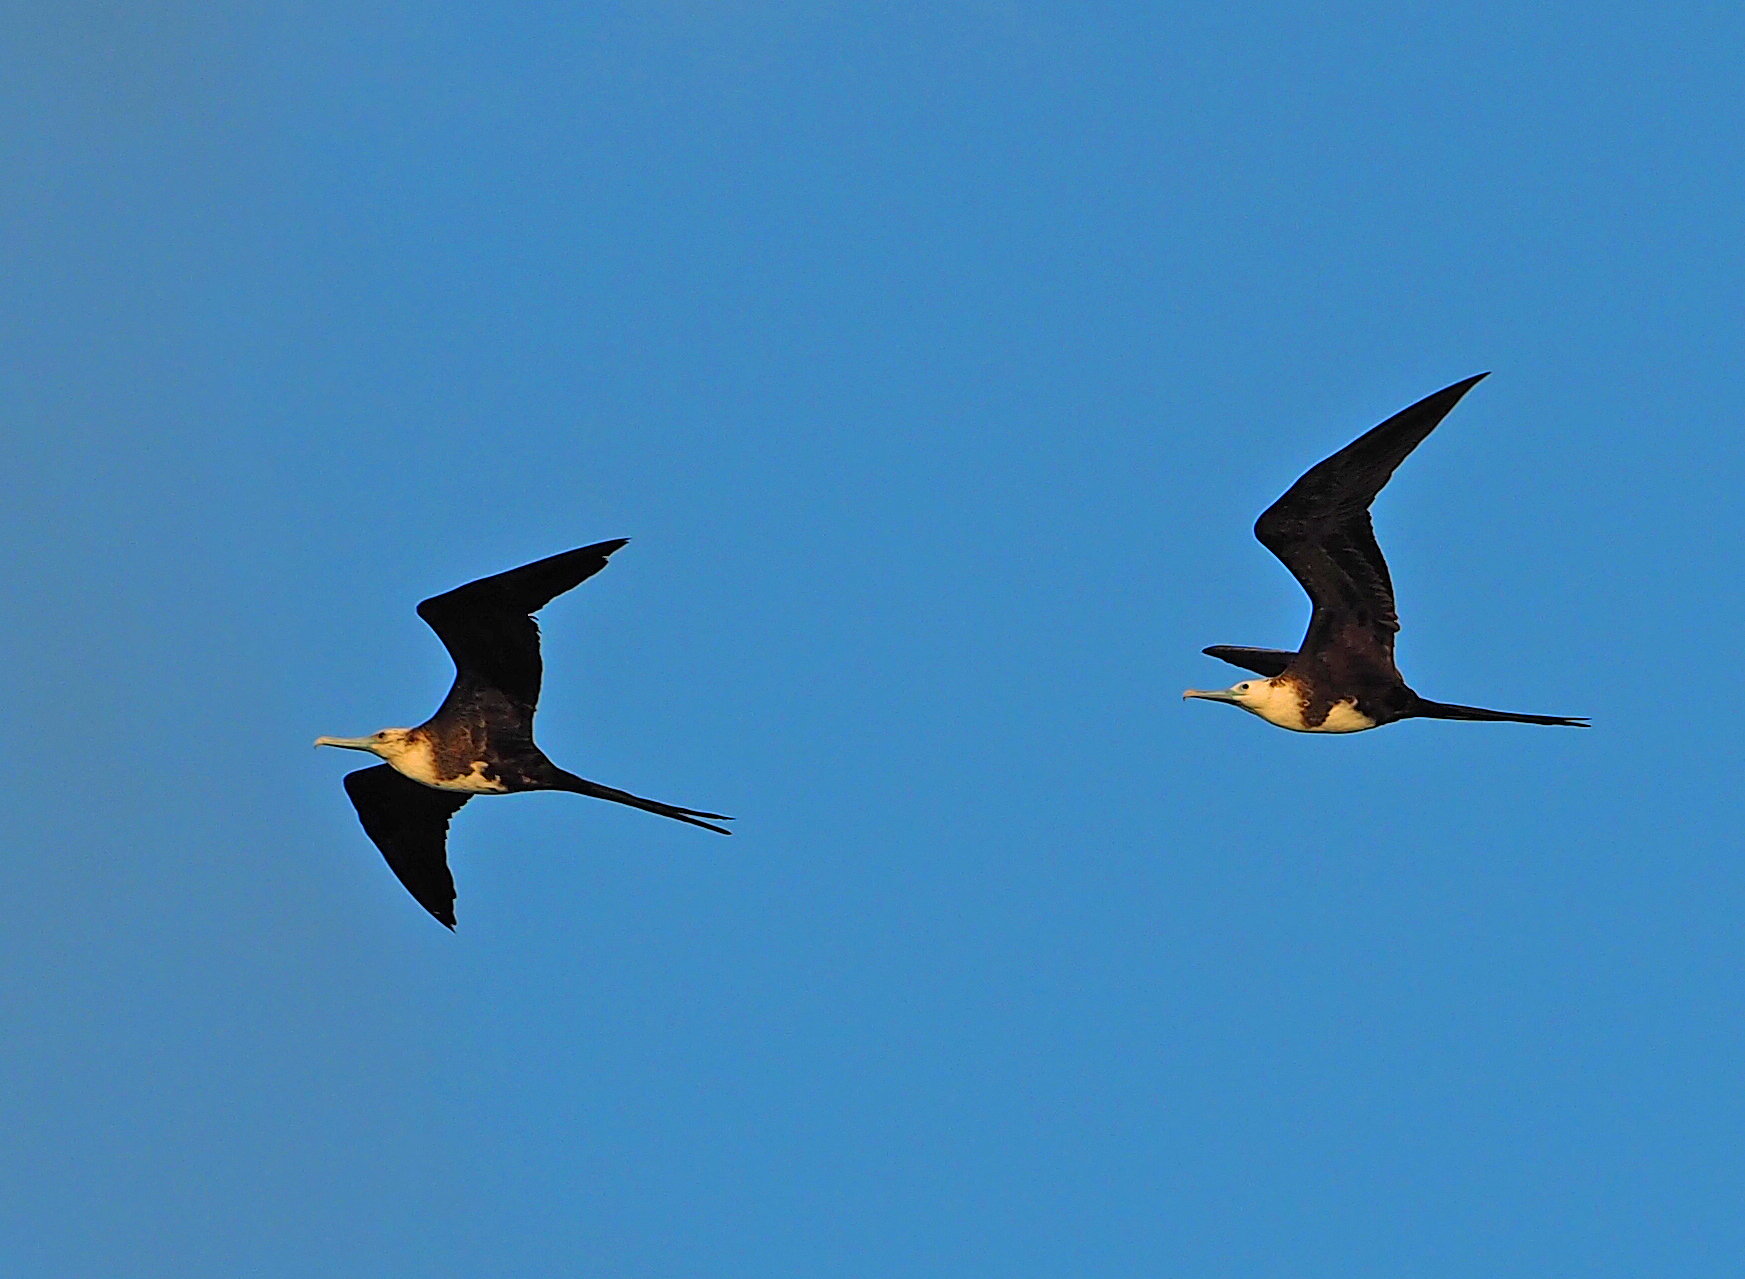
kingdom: Animalia
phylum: Chordata
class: Aves
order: Suliformes
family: Fregatidae
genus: Fregata
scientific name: Fregata magnificens
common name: Magnificent frigatebird
